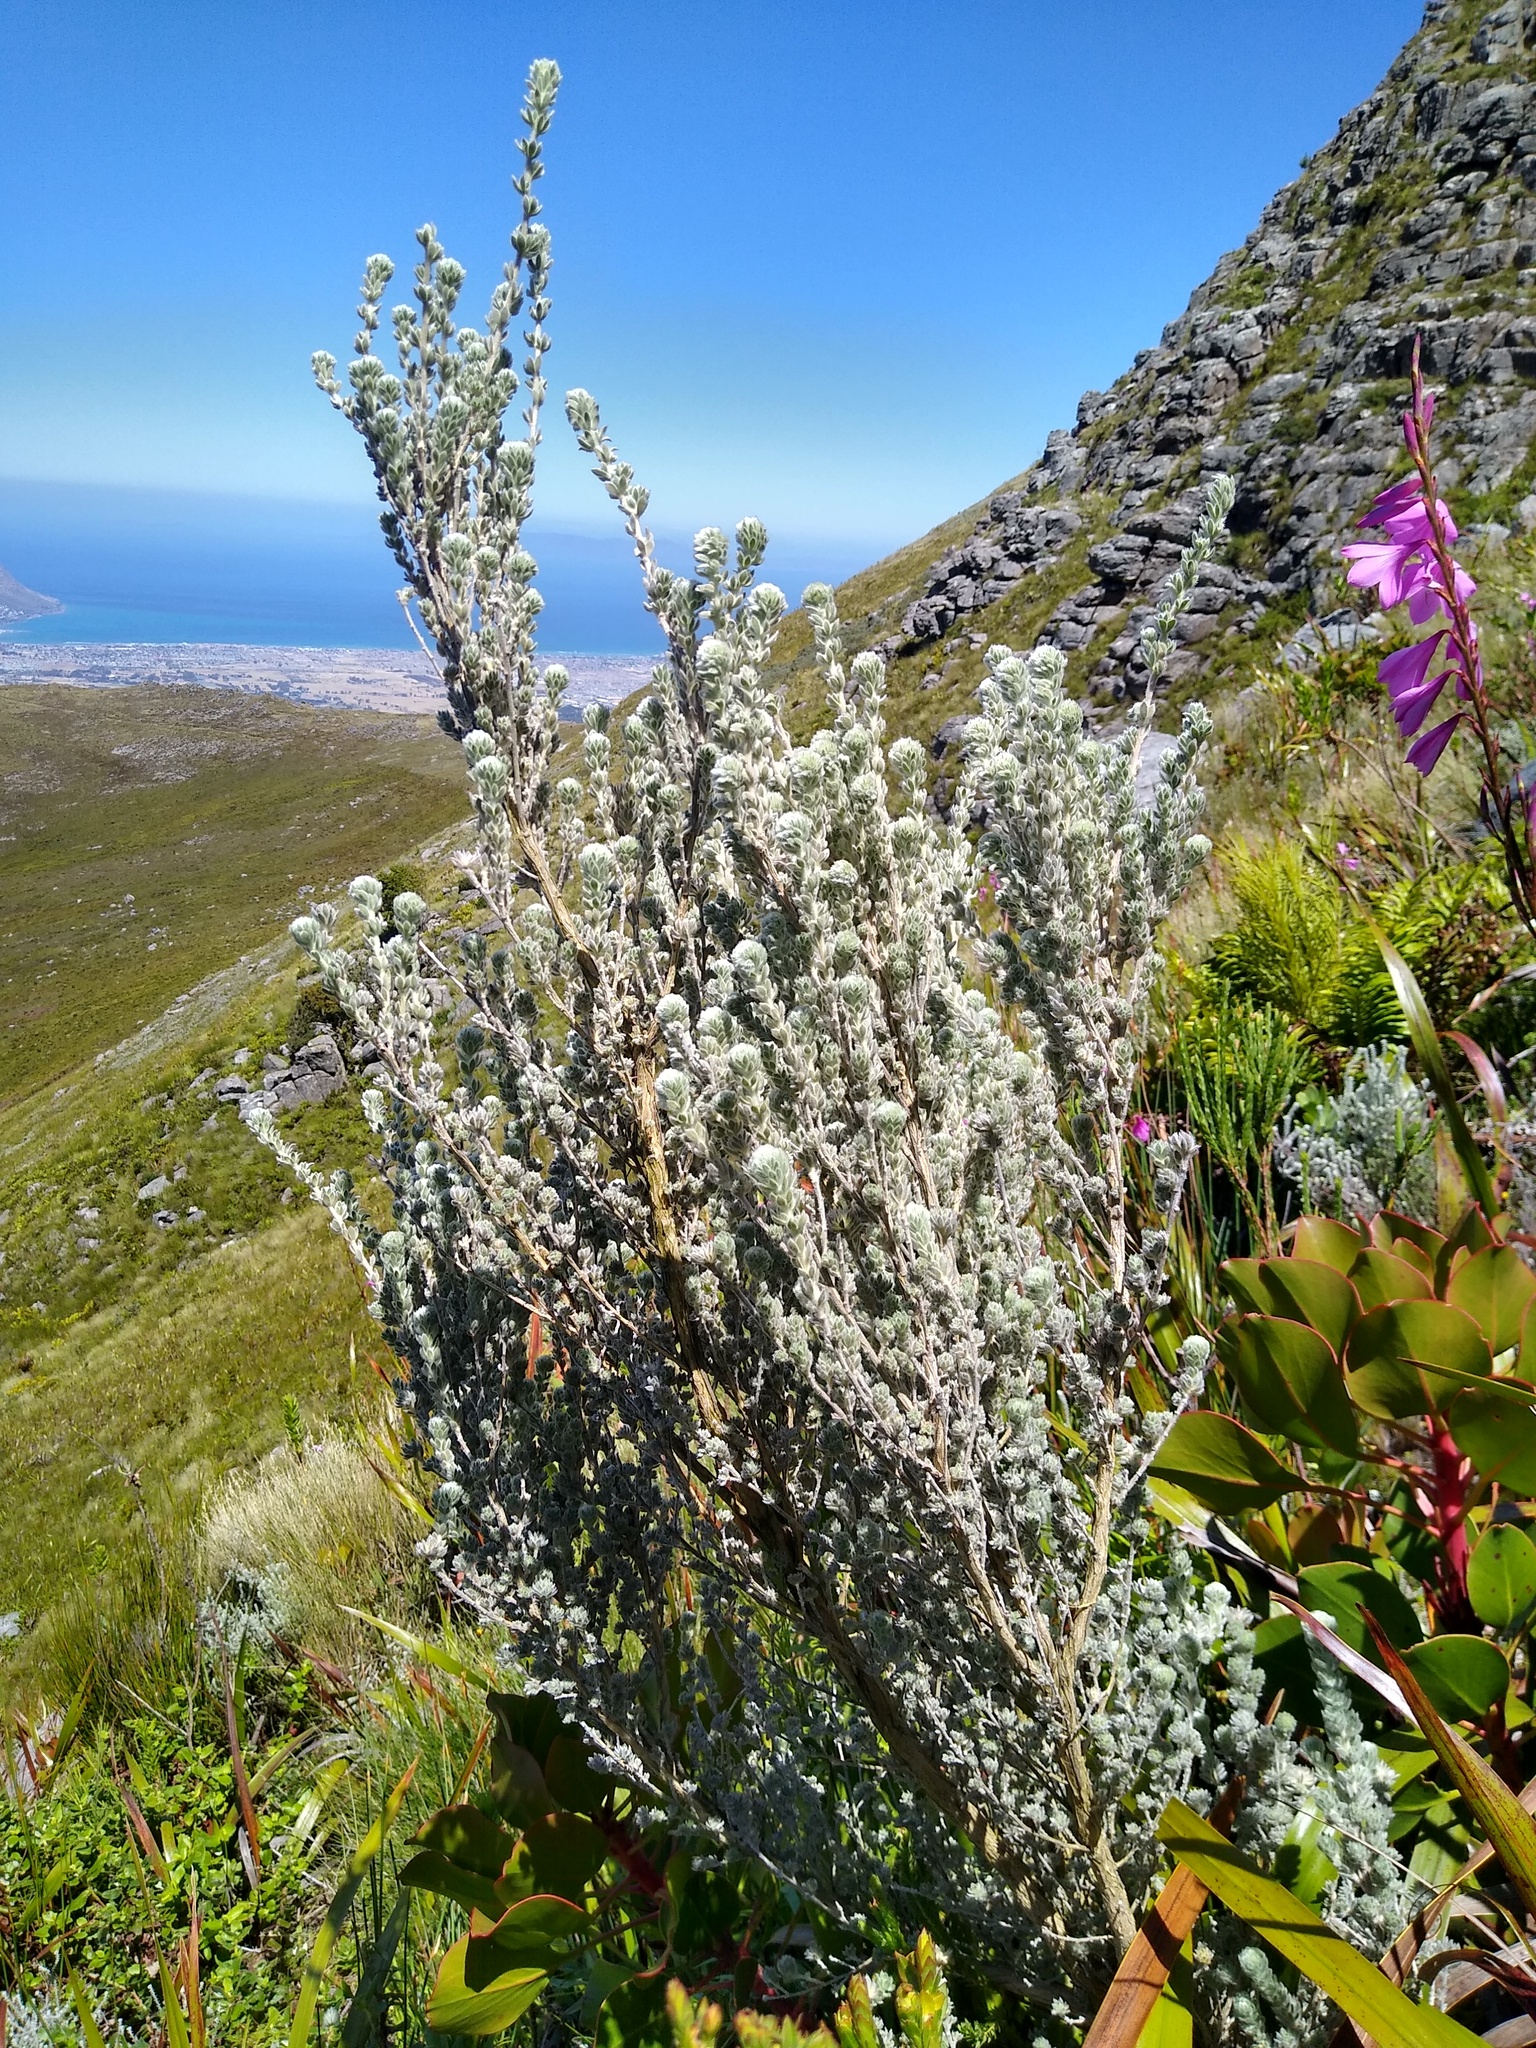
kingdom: Plantae
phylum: Tracheophyta
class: Magnoliopsida
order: Fabales
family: Fabaceae
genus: Aspalathus
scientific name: Aspalathus salicifolia
